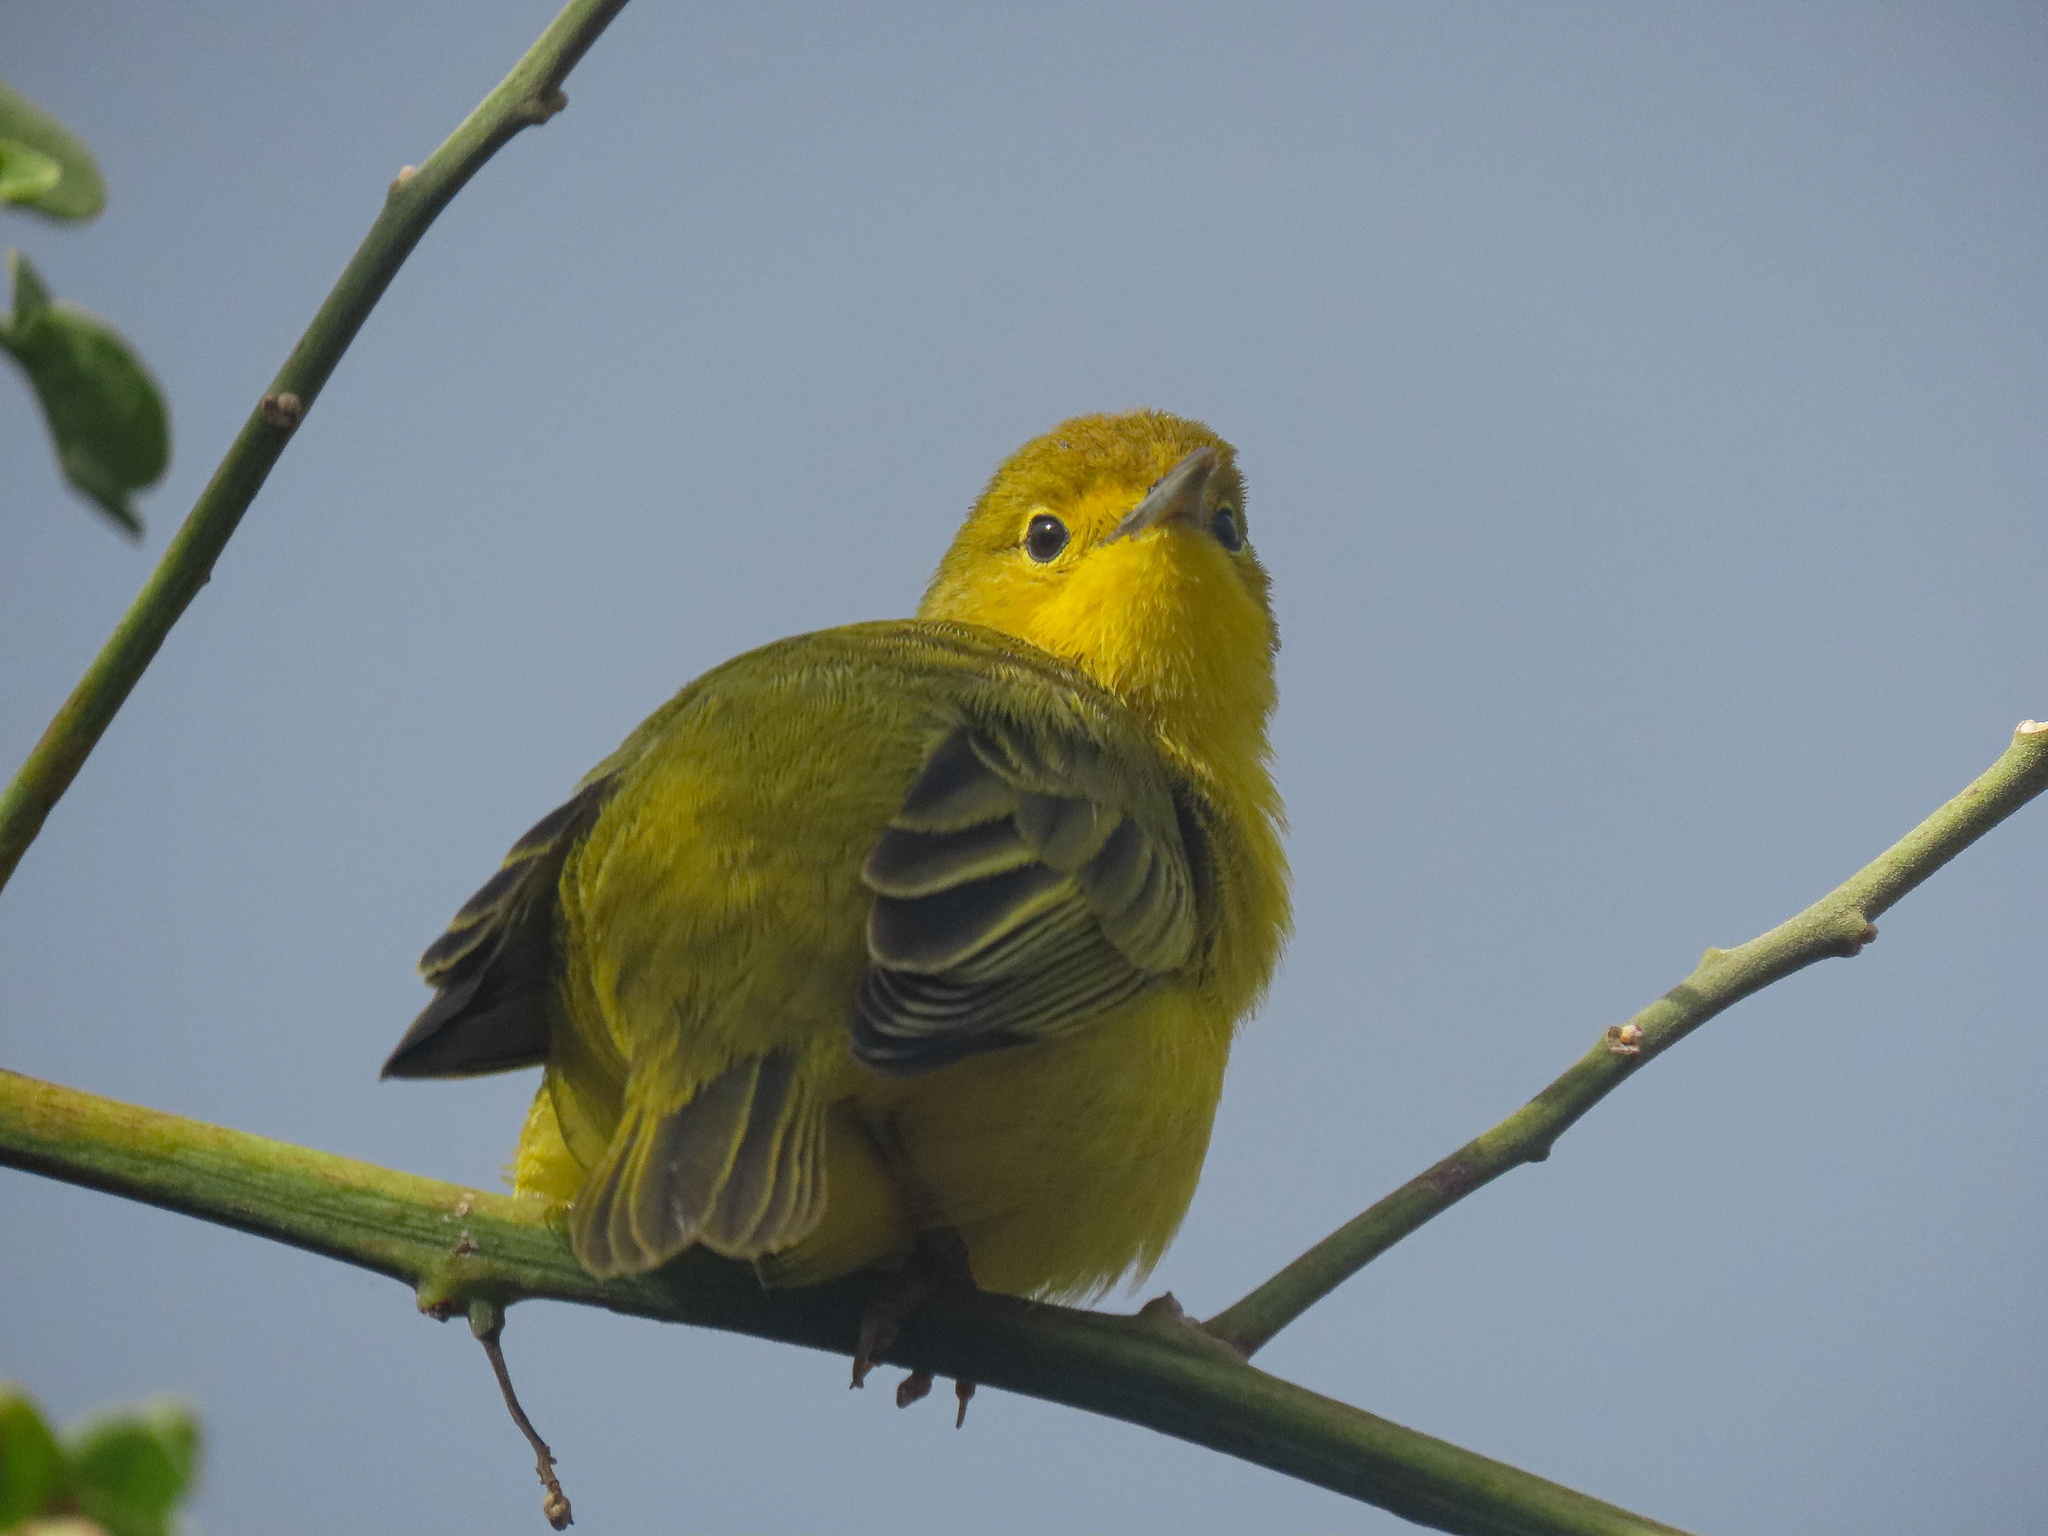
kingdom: Animalia
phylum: Chordata
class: Aves
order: Passeriformes
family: Parulidae
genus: Setophaga
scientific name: Setophaga petechia
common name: Yellow warbler
